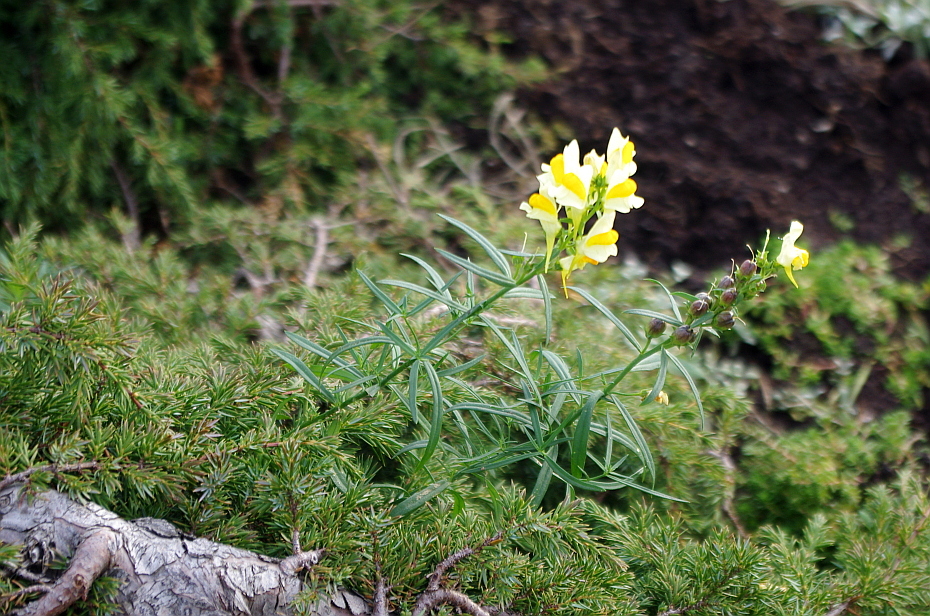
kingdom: Plantae
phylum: Tracheophyta
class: Magnoliopsida
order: Lamiales
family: Plantaginaceae
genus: Linaria
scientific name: Linaria vulgaris
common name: Butter and eggs
